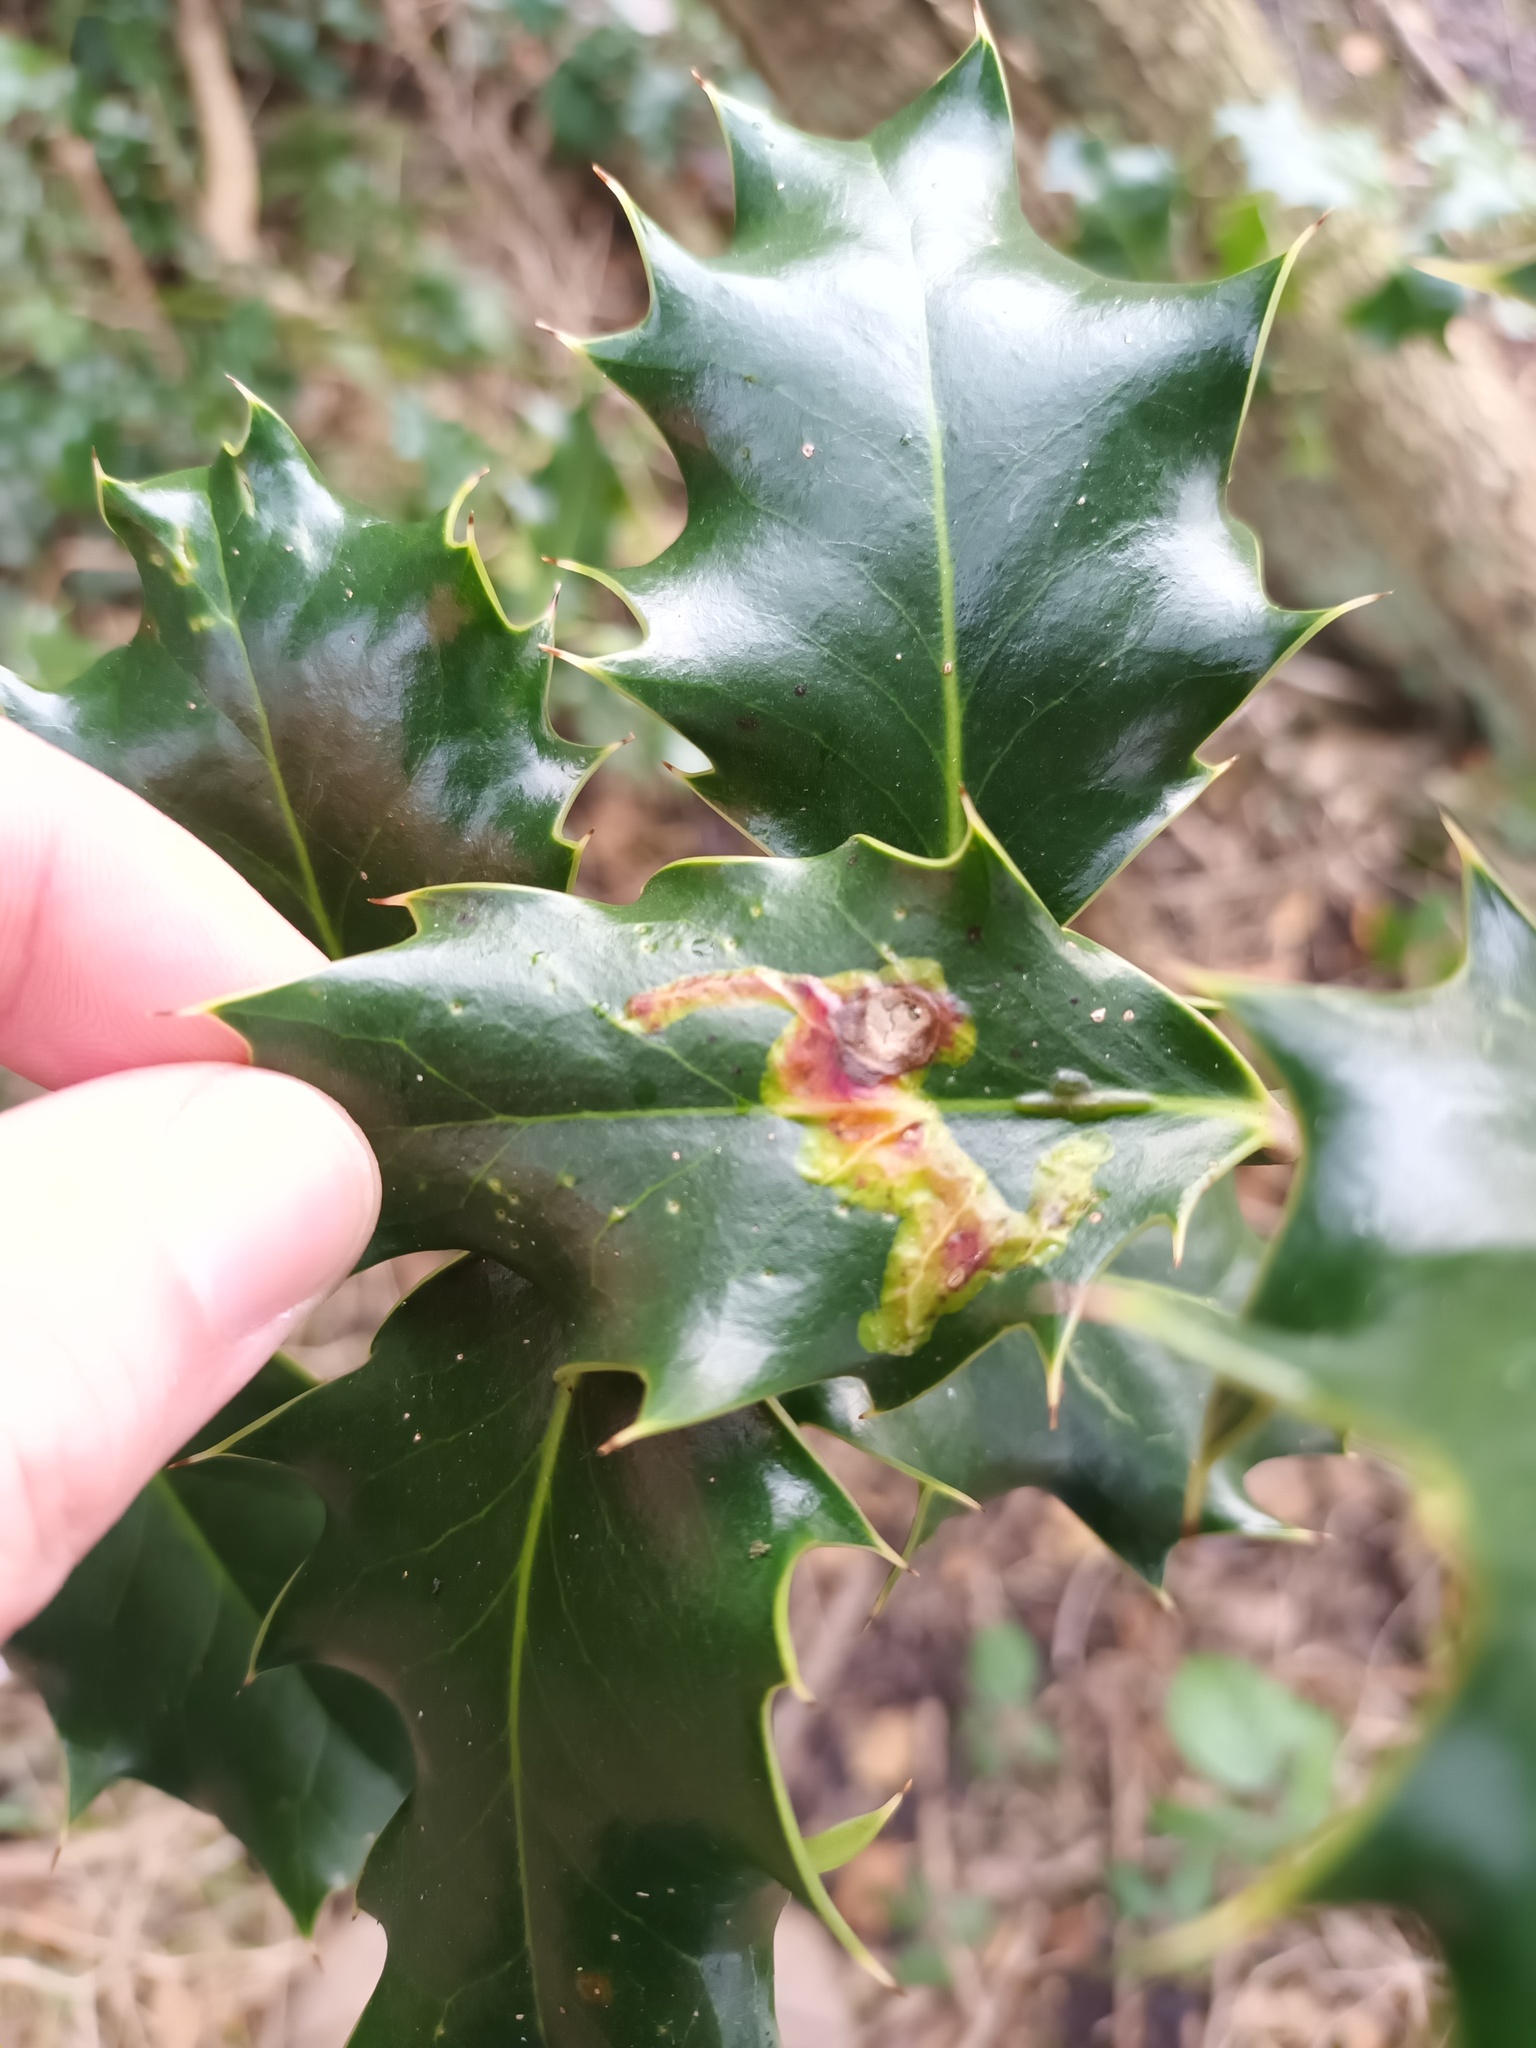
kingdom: Animalia
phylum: Arthropoda
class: Insecta
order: Diptera
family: Agromyzidae
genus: Phytomyza
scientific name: Phytomyza ilicis
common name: Holly leafminer
